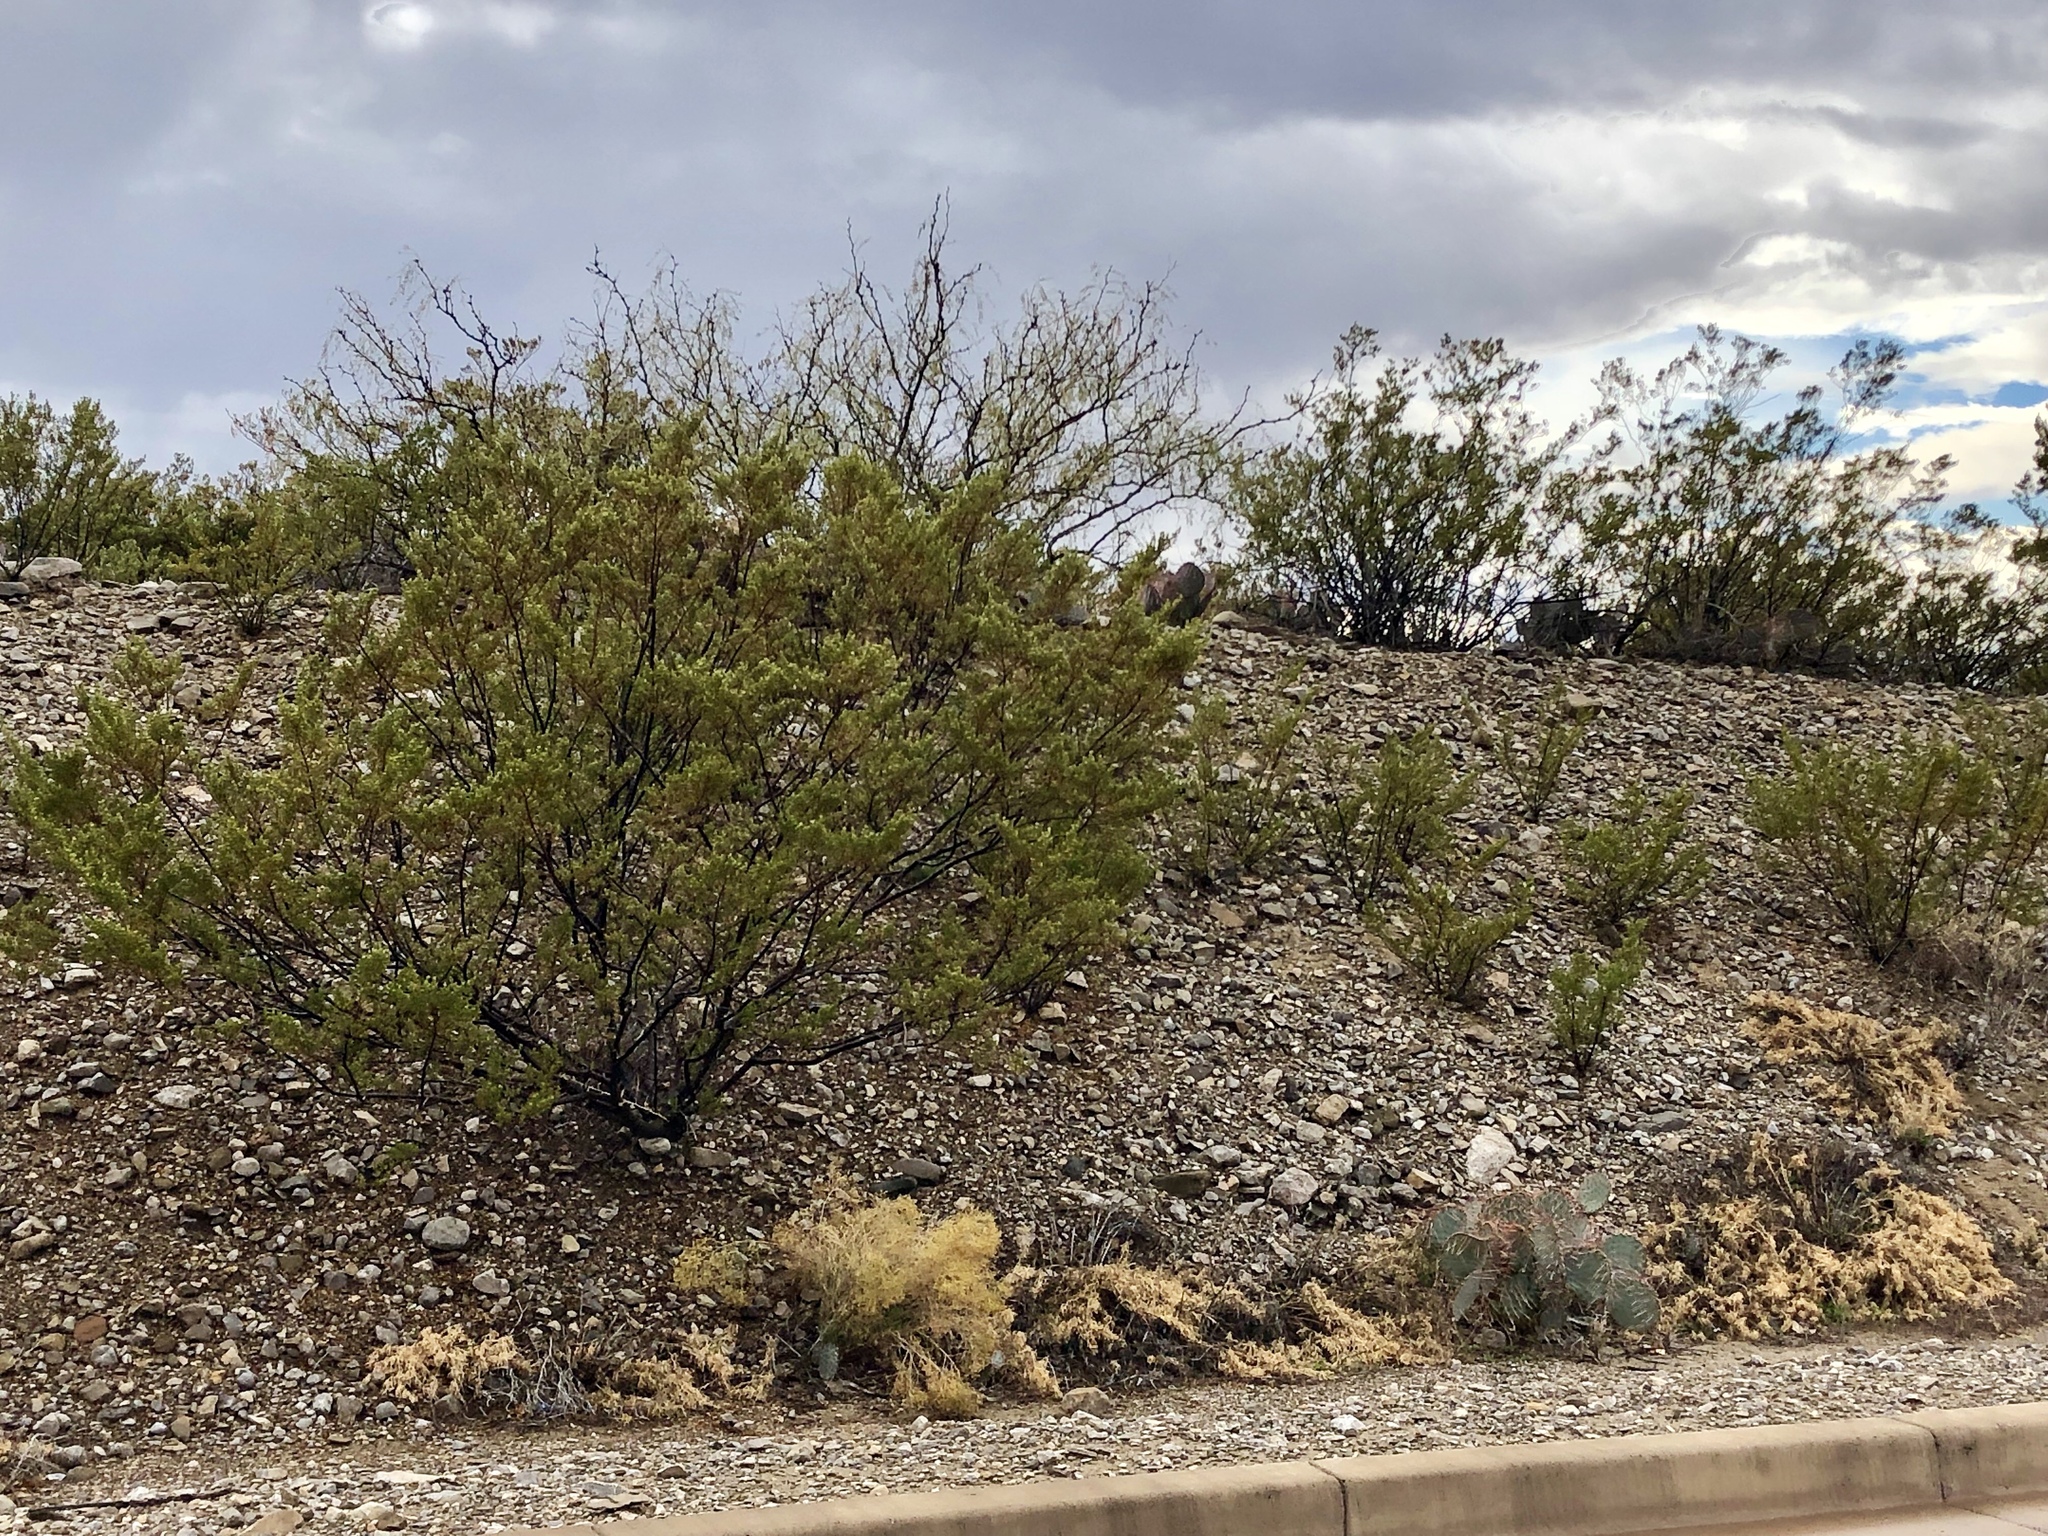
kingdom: Plantae
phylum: Tracheophyta
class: Magnoliopsida
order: Zygophyllales
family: Zygophyllaceae
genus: Larrea
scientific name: Larrea tridentata
